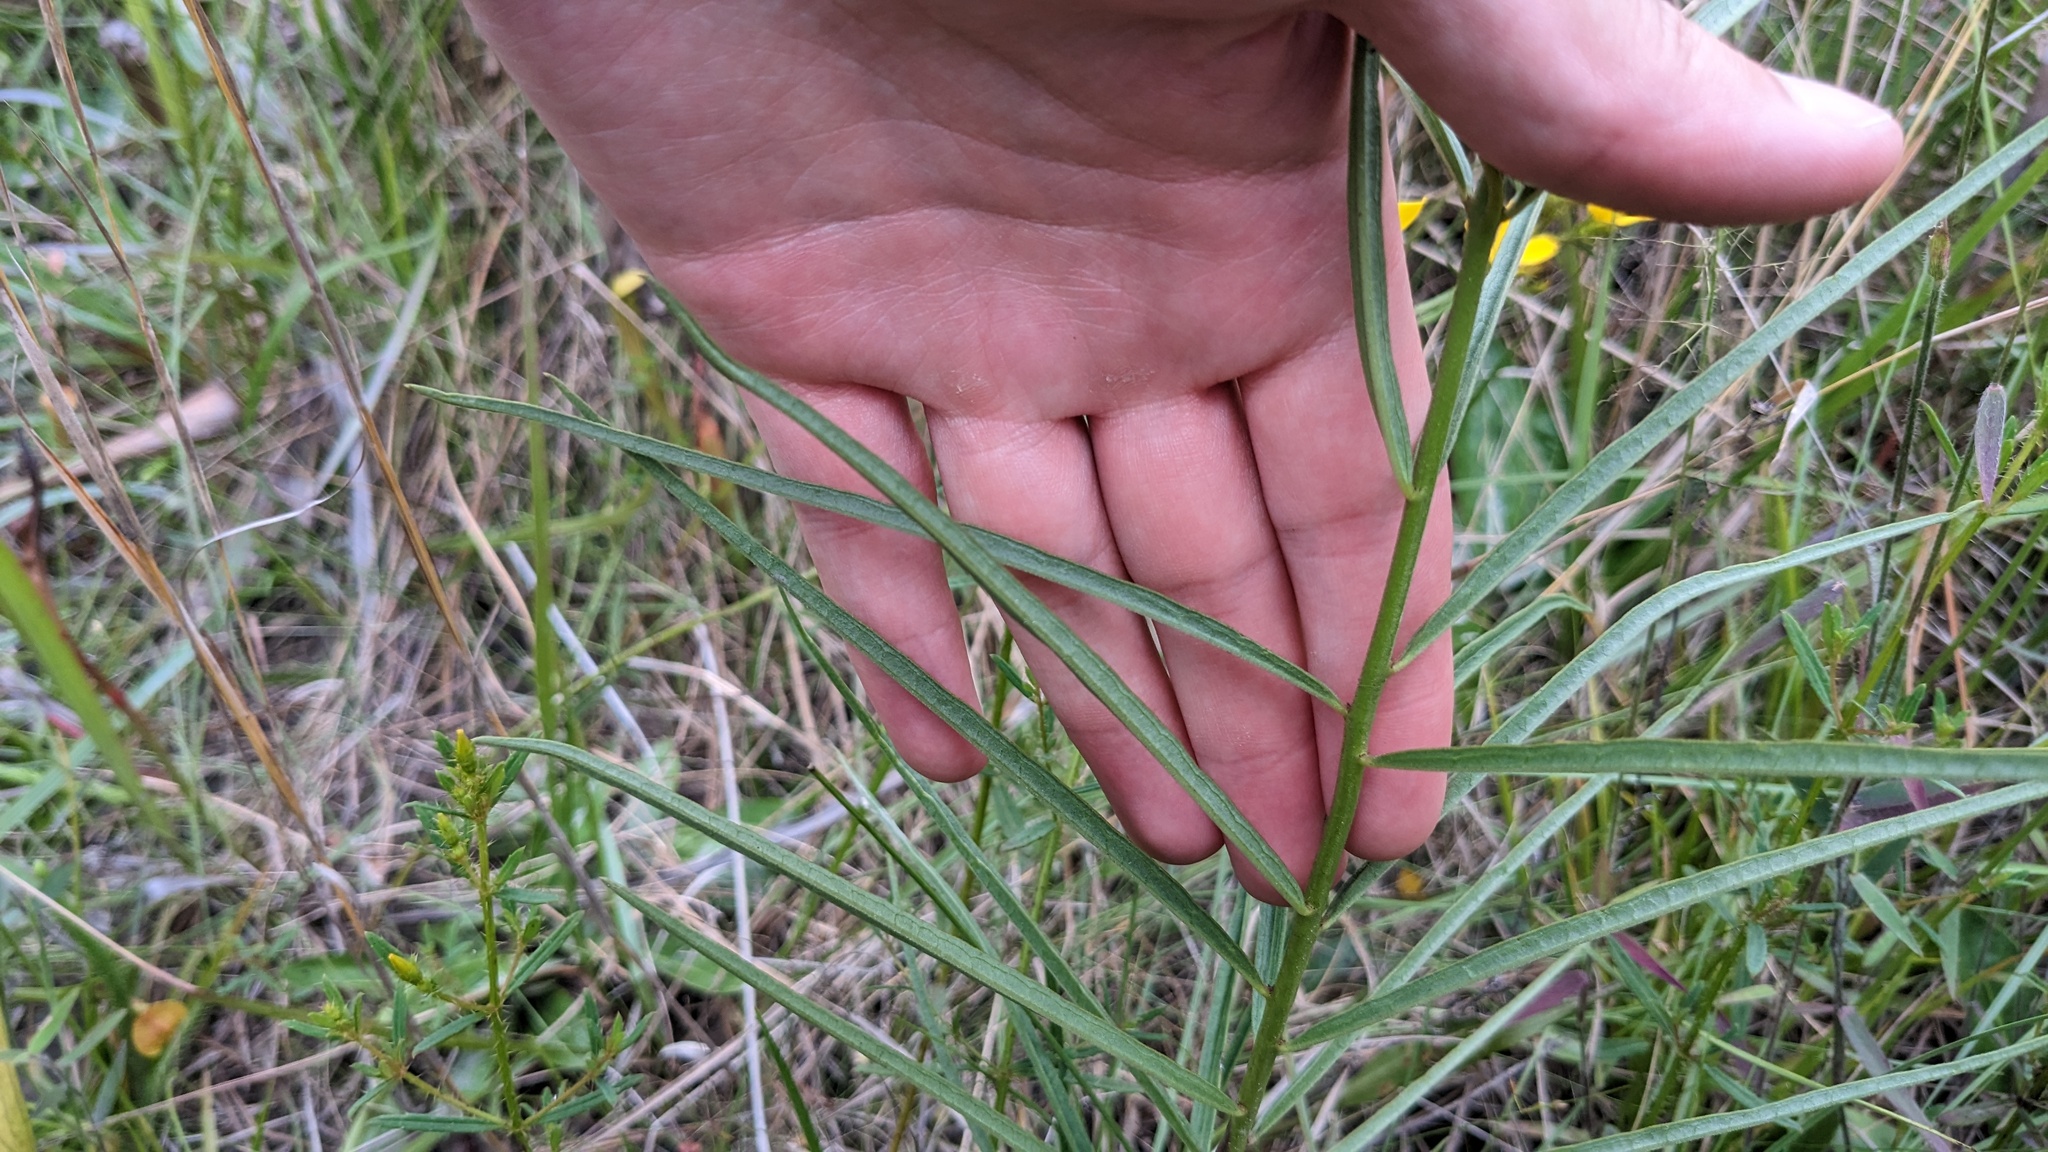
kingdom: Plantae
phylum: Tracheophyta
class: Magnoliopsida
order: Gentianales
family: Apocynaceae
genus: Asclepias
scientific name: Asclepias hirtella
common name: Prairie milkweed
